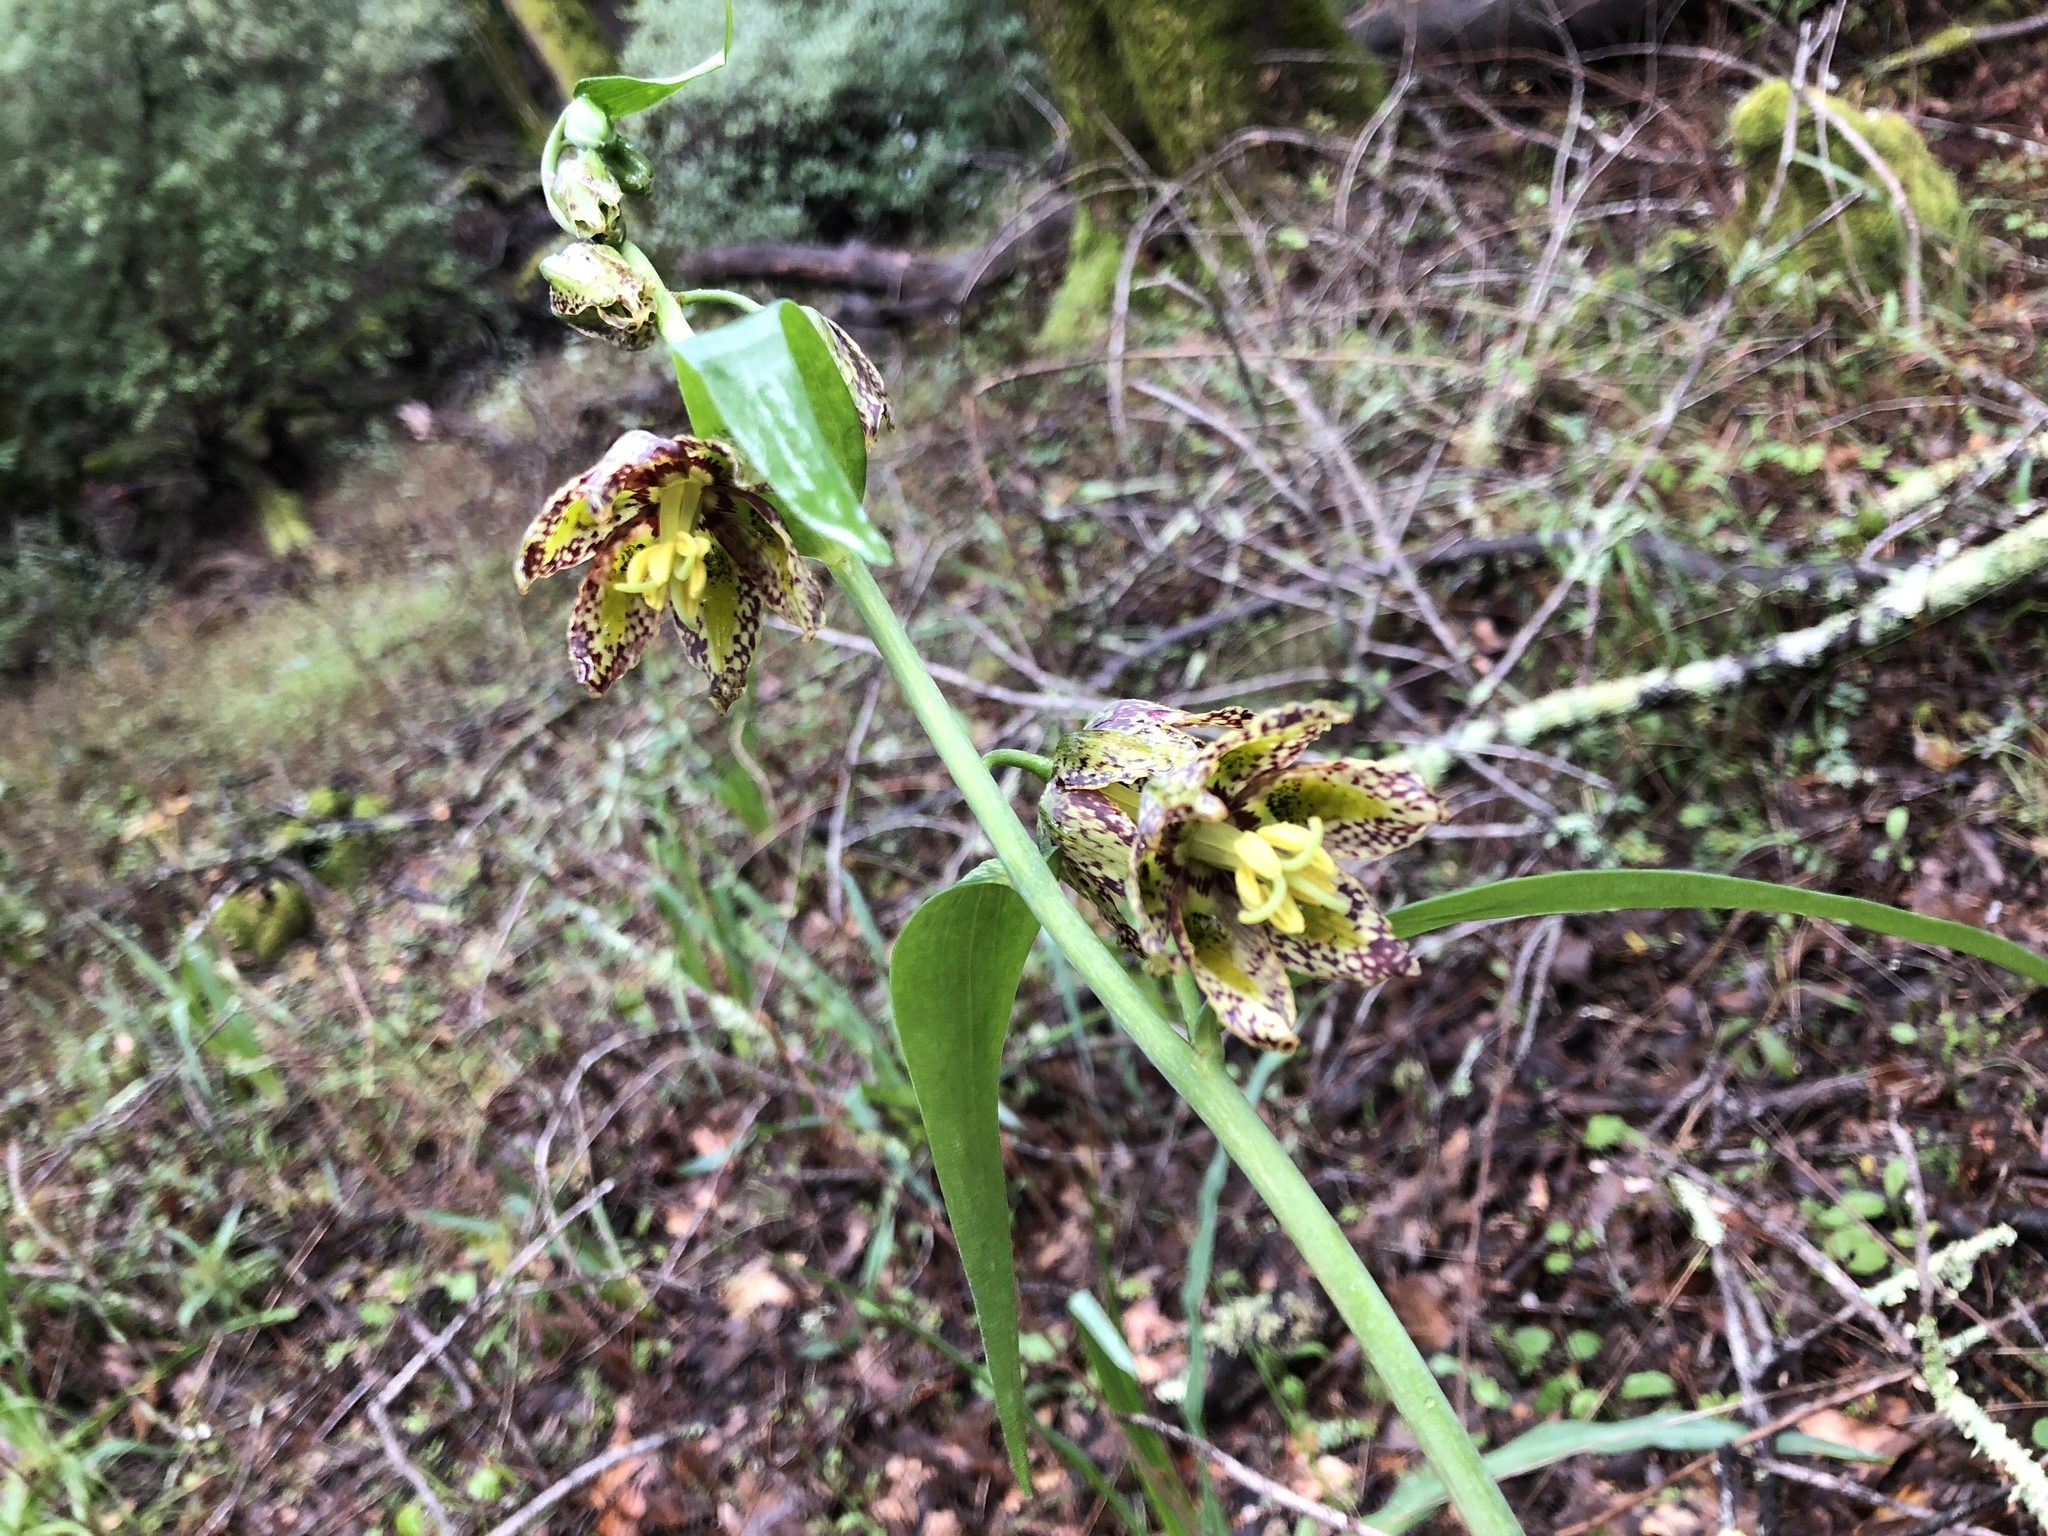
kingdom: Plantae
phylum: Tracheophyta
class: Liliopsida
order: Liliales
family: Liliaceae
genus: Fritillaria
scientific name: Fritillaria affinis
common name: Ojai fritillary
